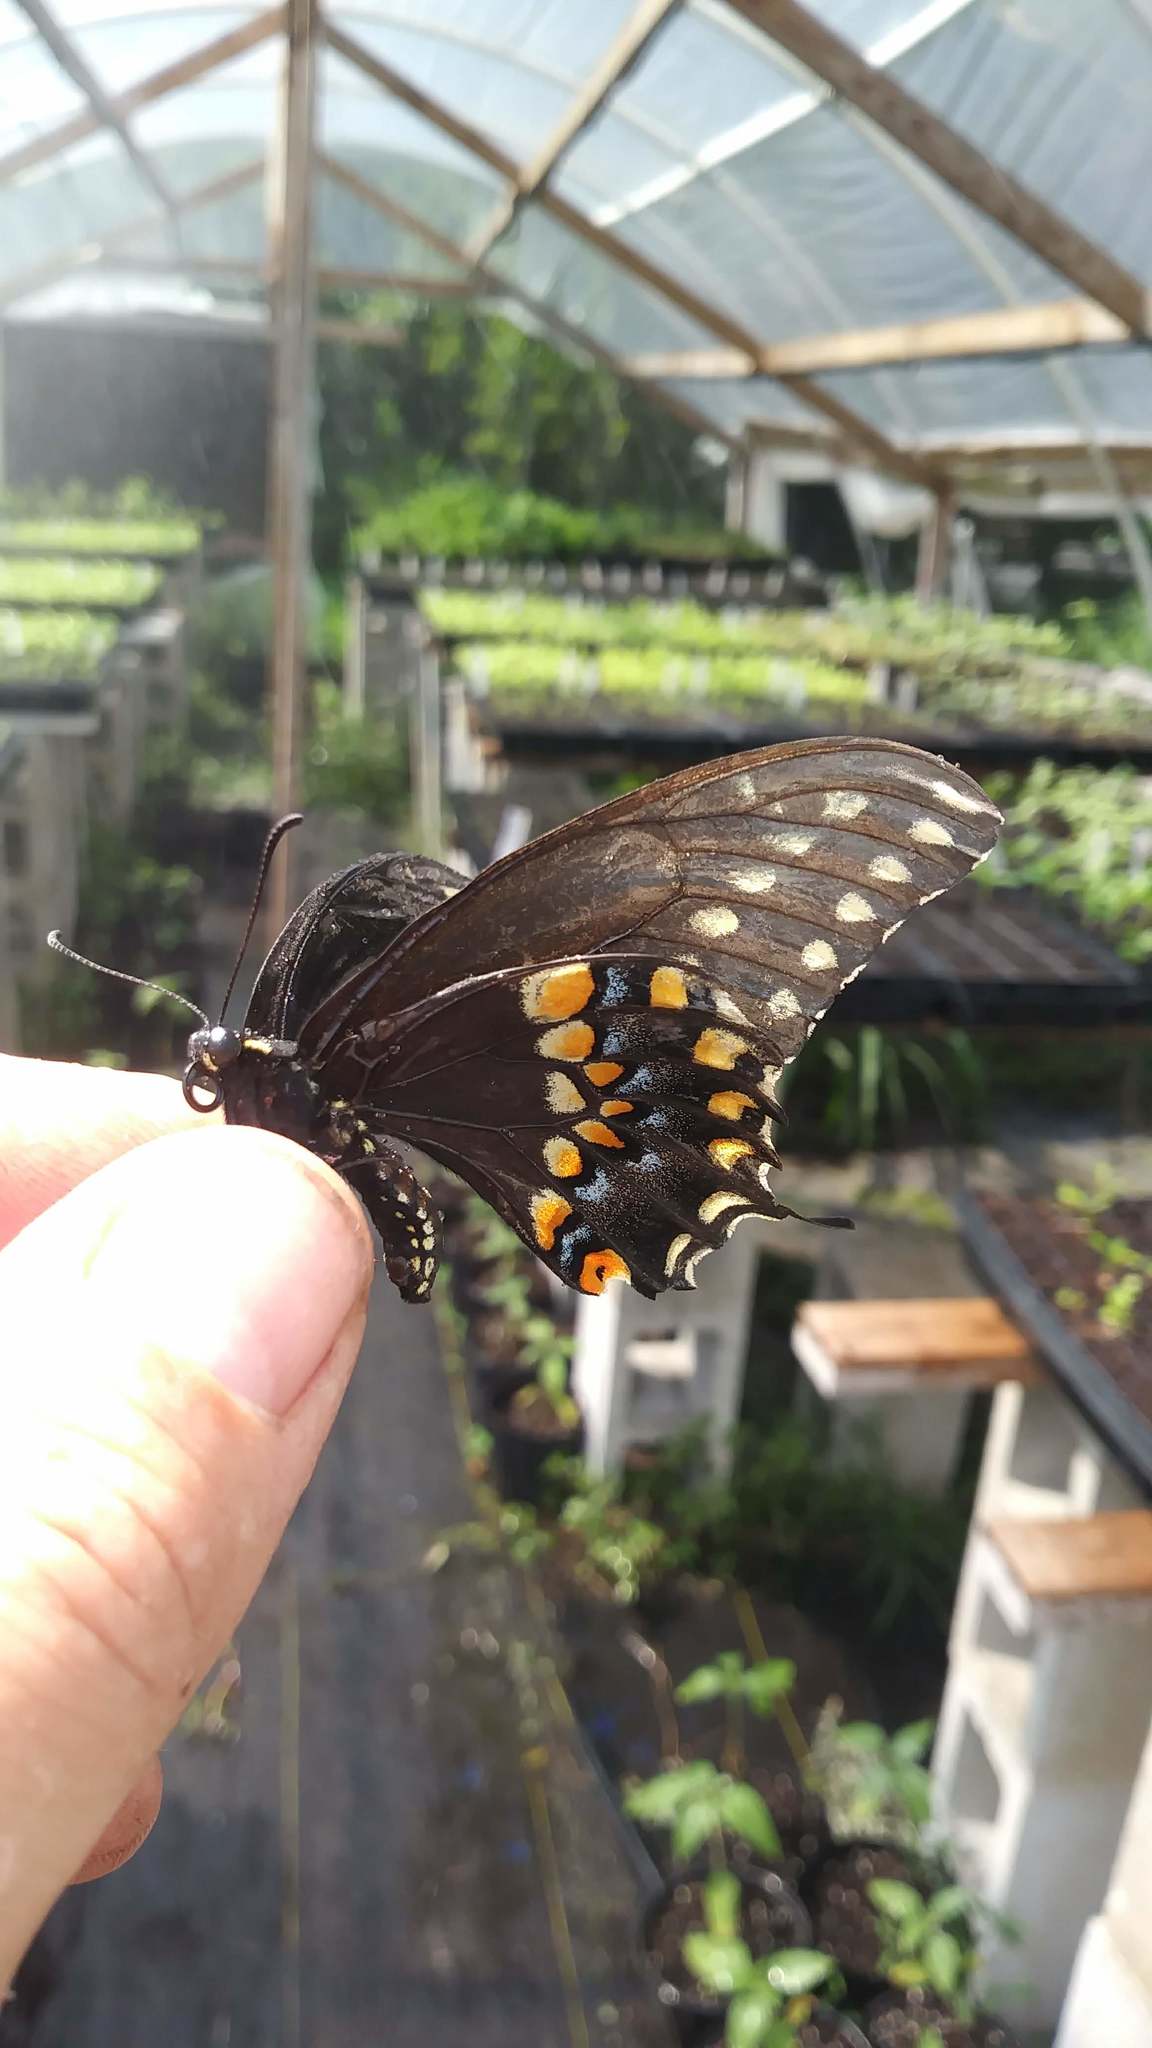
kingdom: Animalia
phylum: Arthropoda
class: Insecta
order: Lepidoptera
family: Papilionidae
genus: Papilio
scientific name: Papilio polyxenes
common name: Black swallowtail
